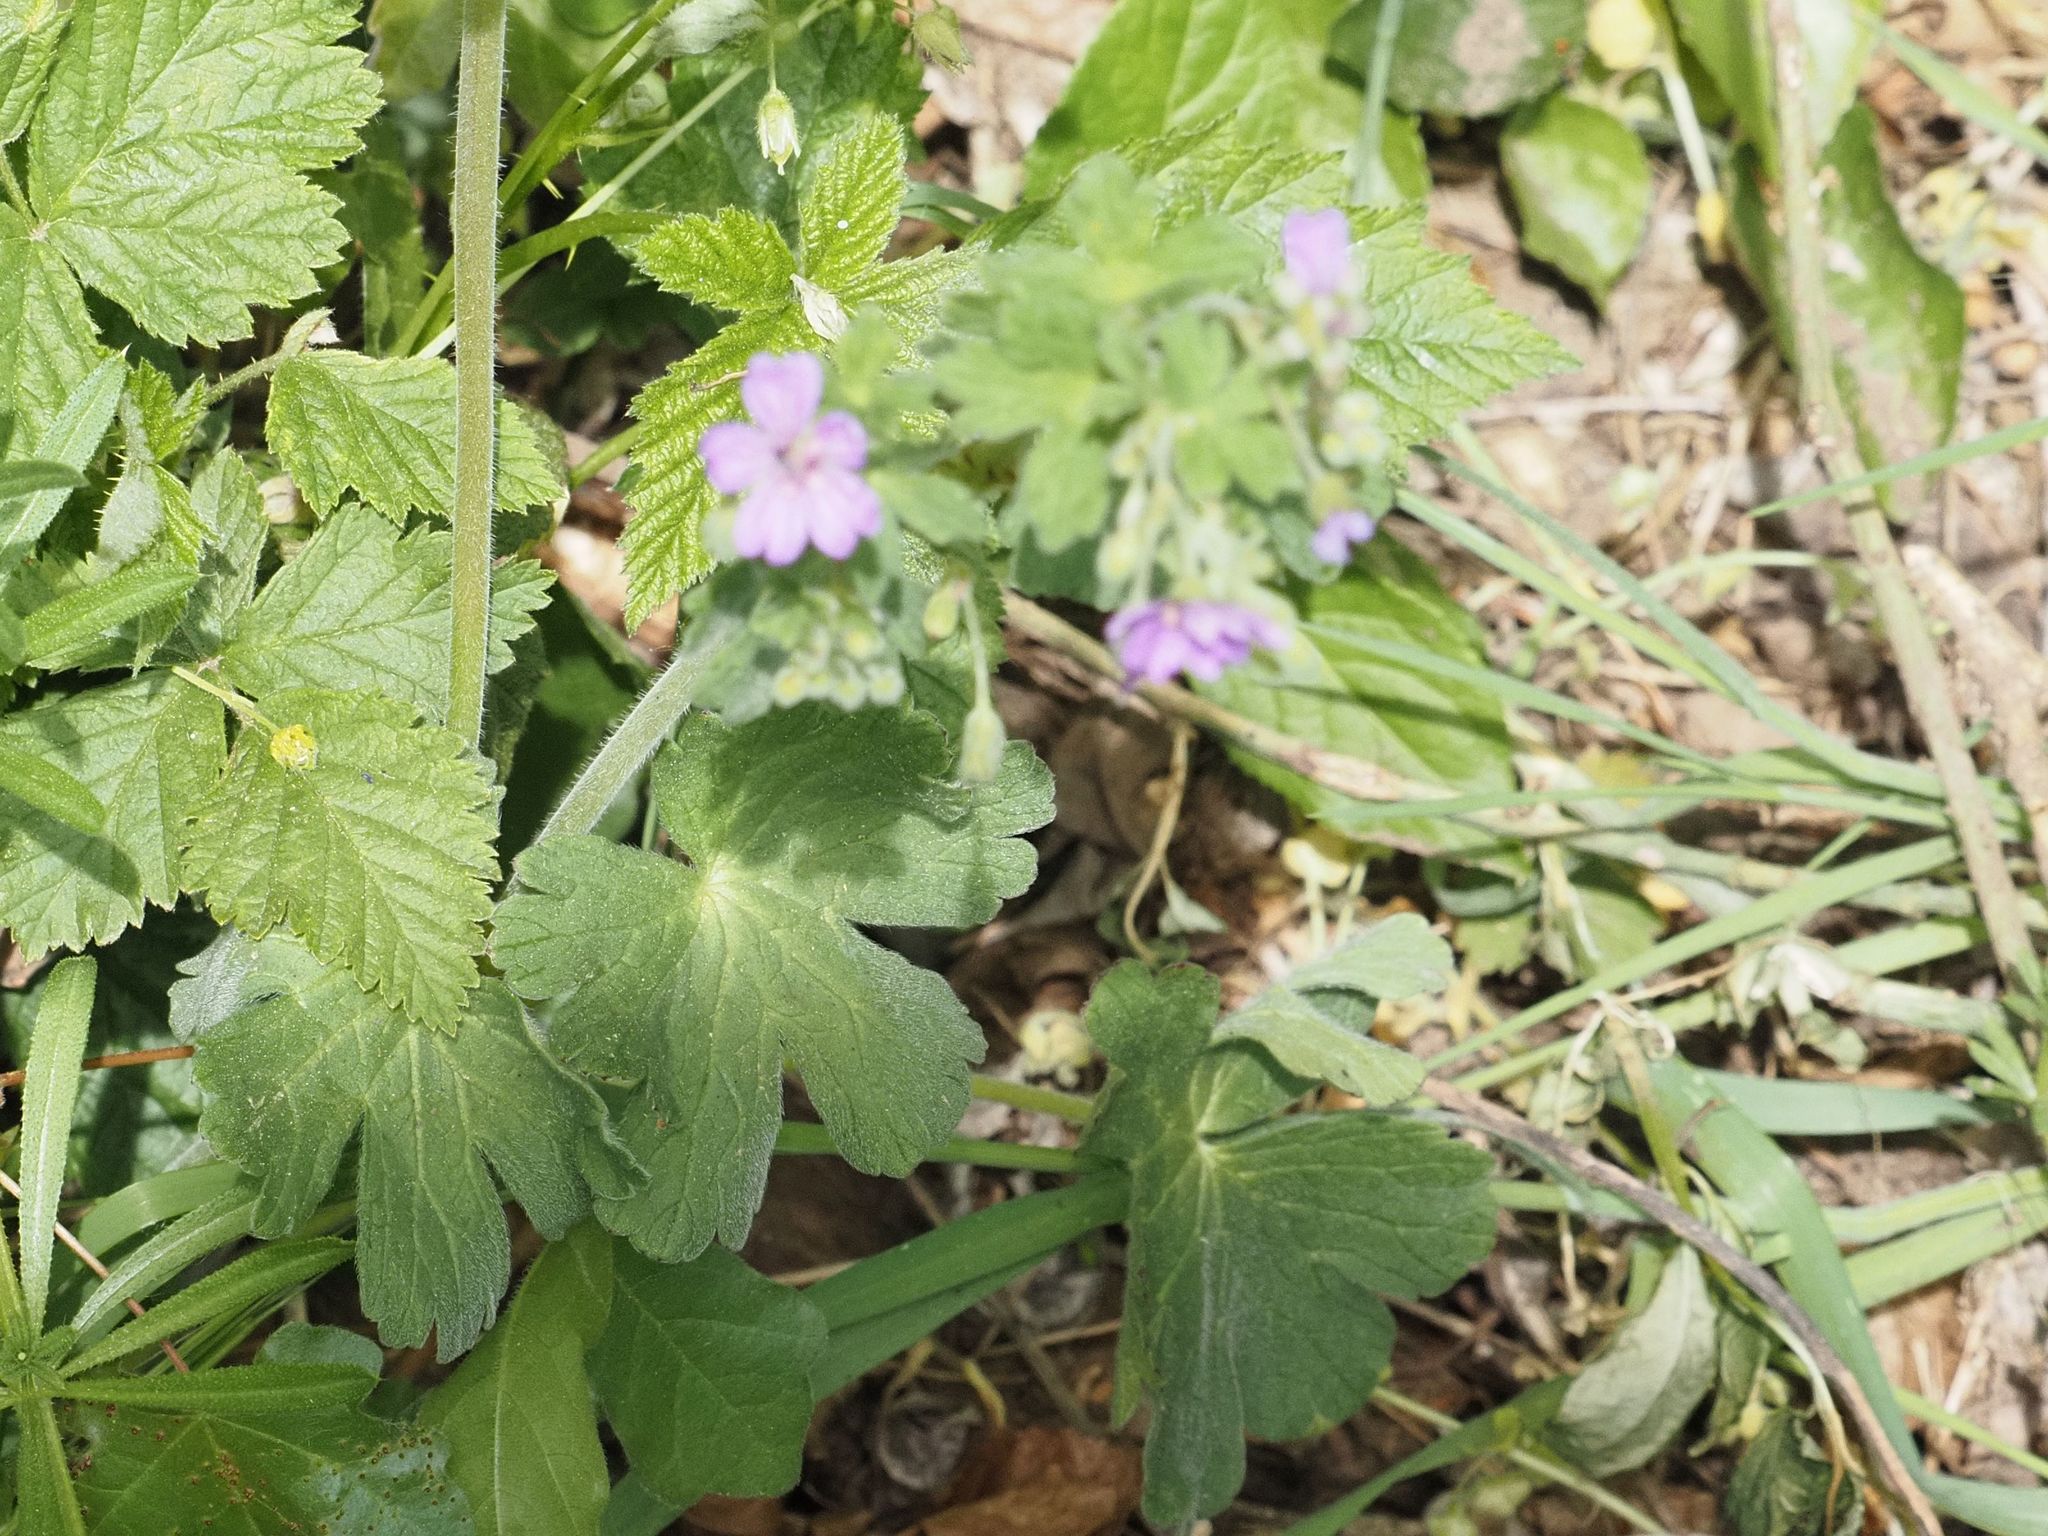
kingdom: Plantae
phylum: Tracheophyta
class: Magnoliopsida
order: Geraniales
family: Geraniaceae
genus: Geranium
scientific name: Geranium pyrenaicum
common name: Hedgerow crane's-bill
